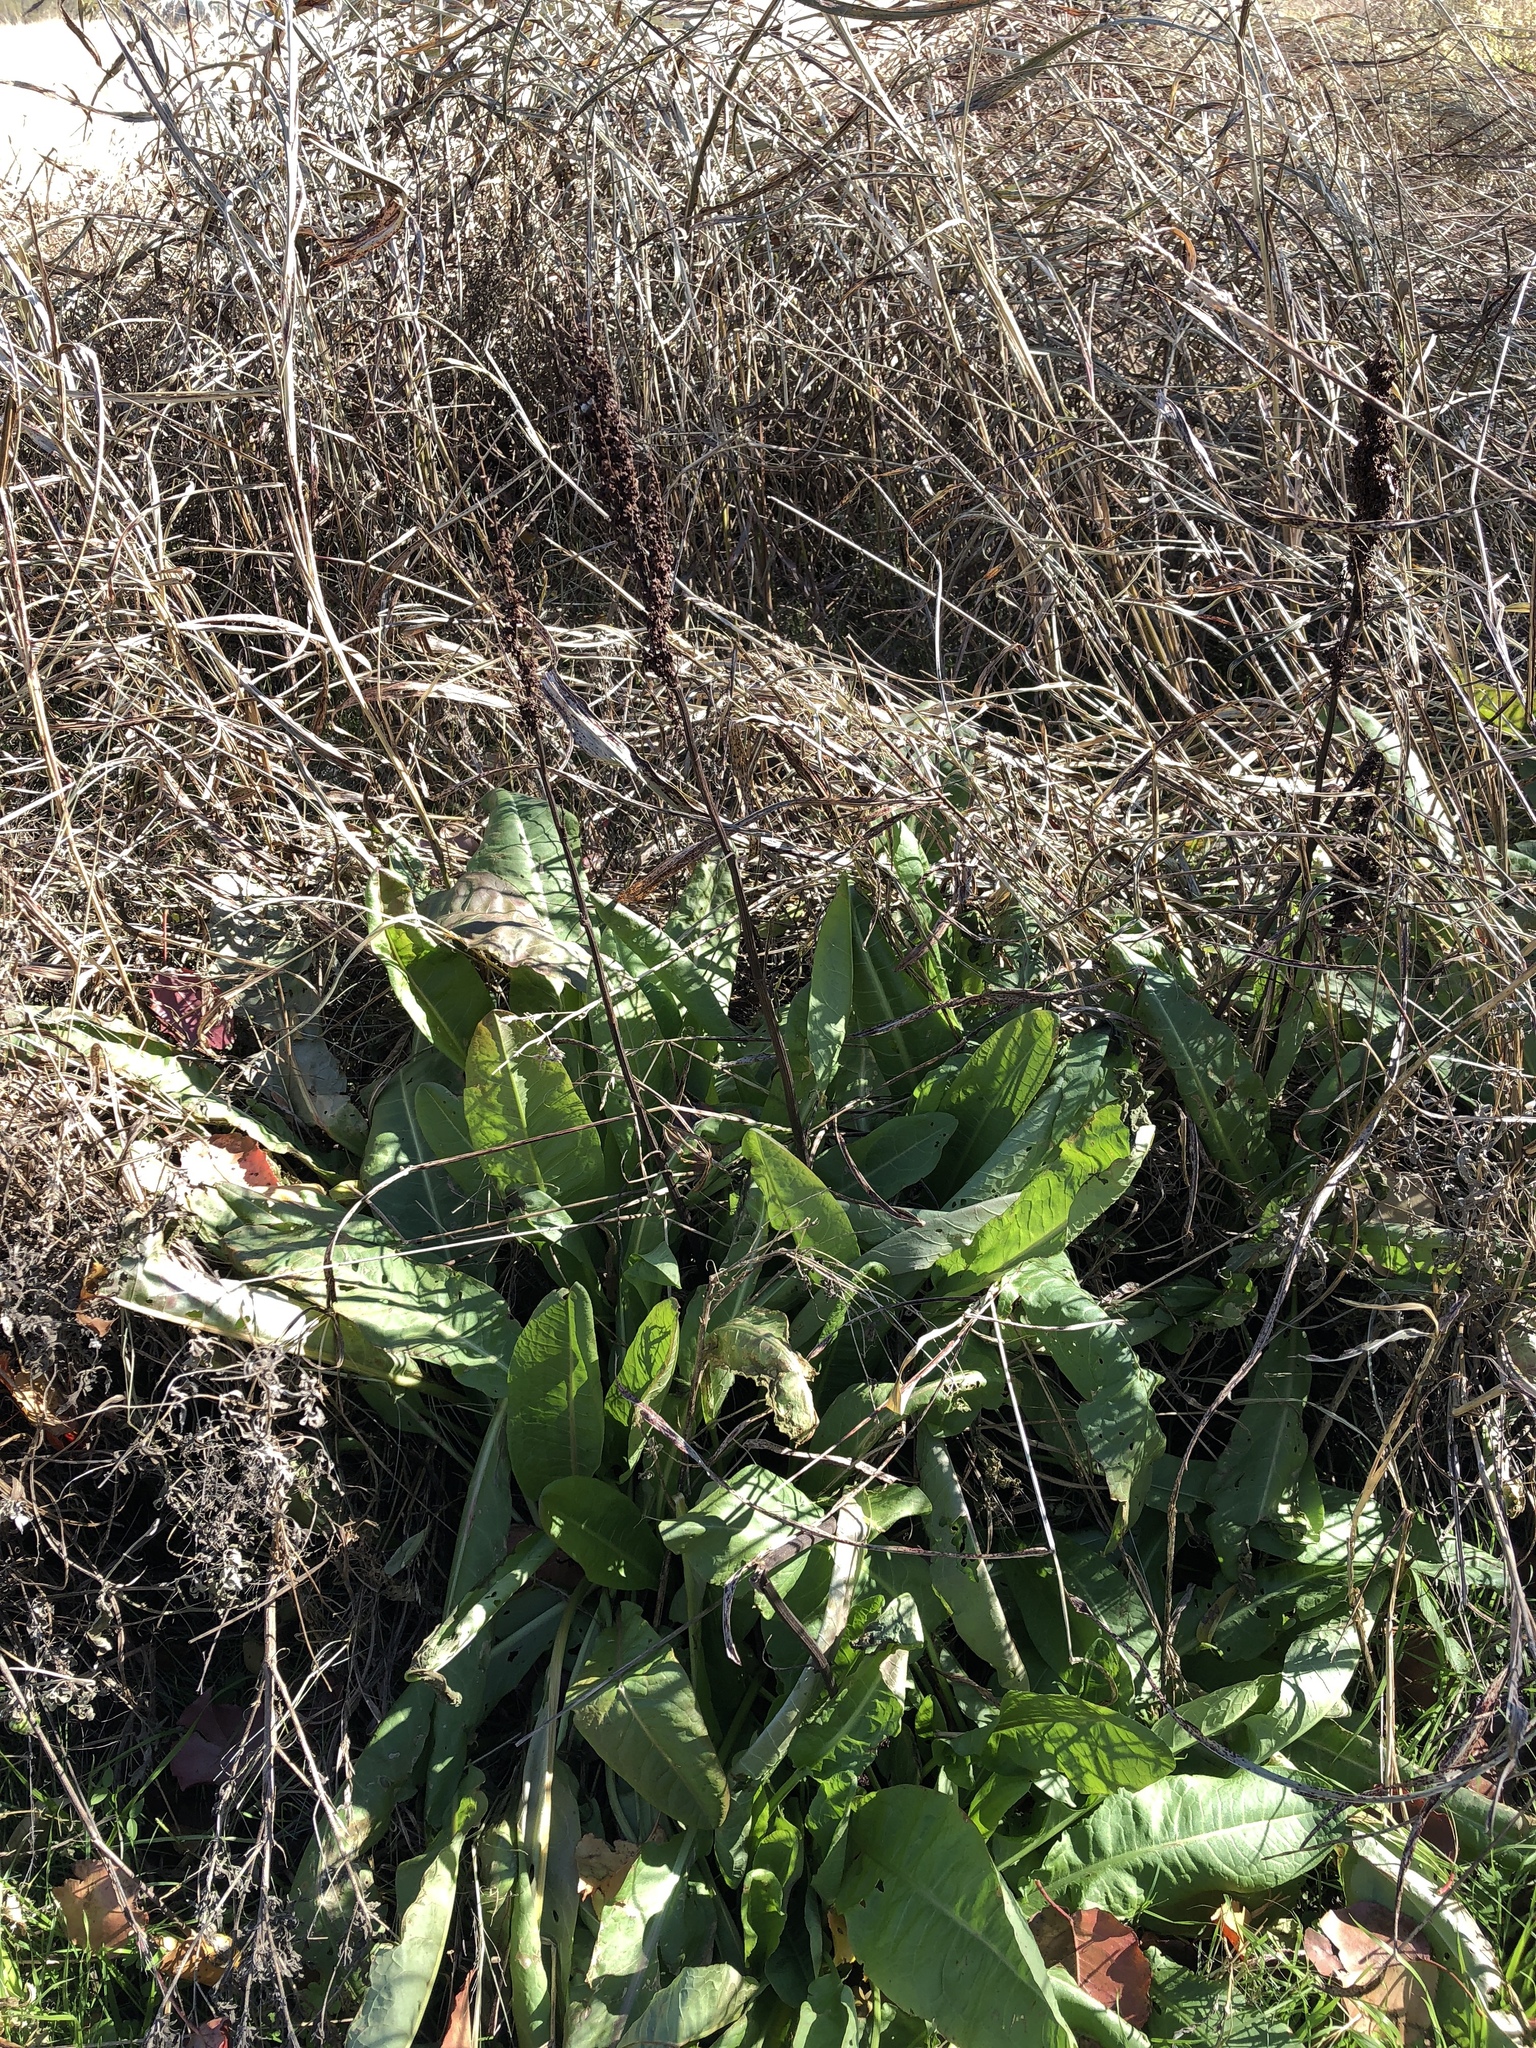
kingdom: Plantae
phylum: Tracheophyta
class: Magnoliopsida
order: Caryophyllales
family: Polygonaceae
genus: Rumex
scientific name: Rumex crispus
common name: Curled dock
